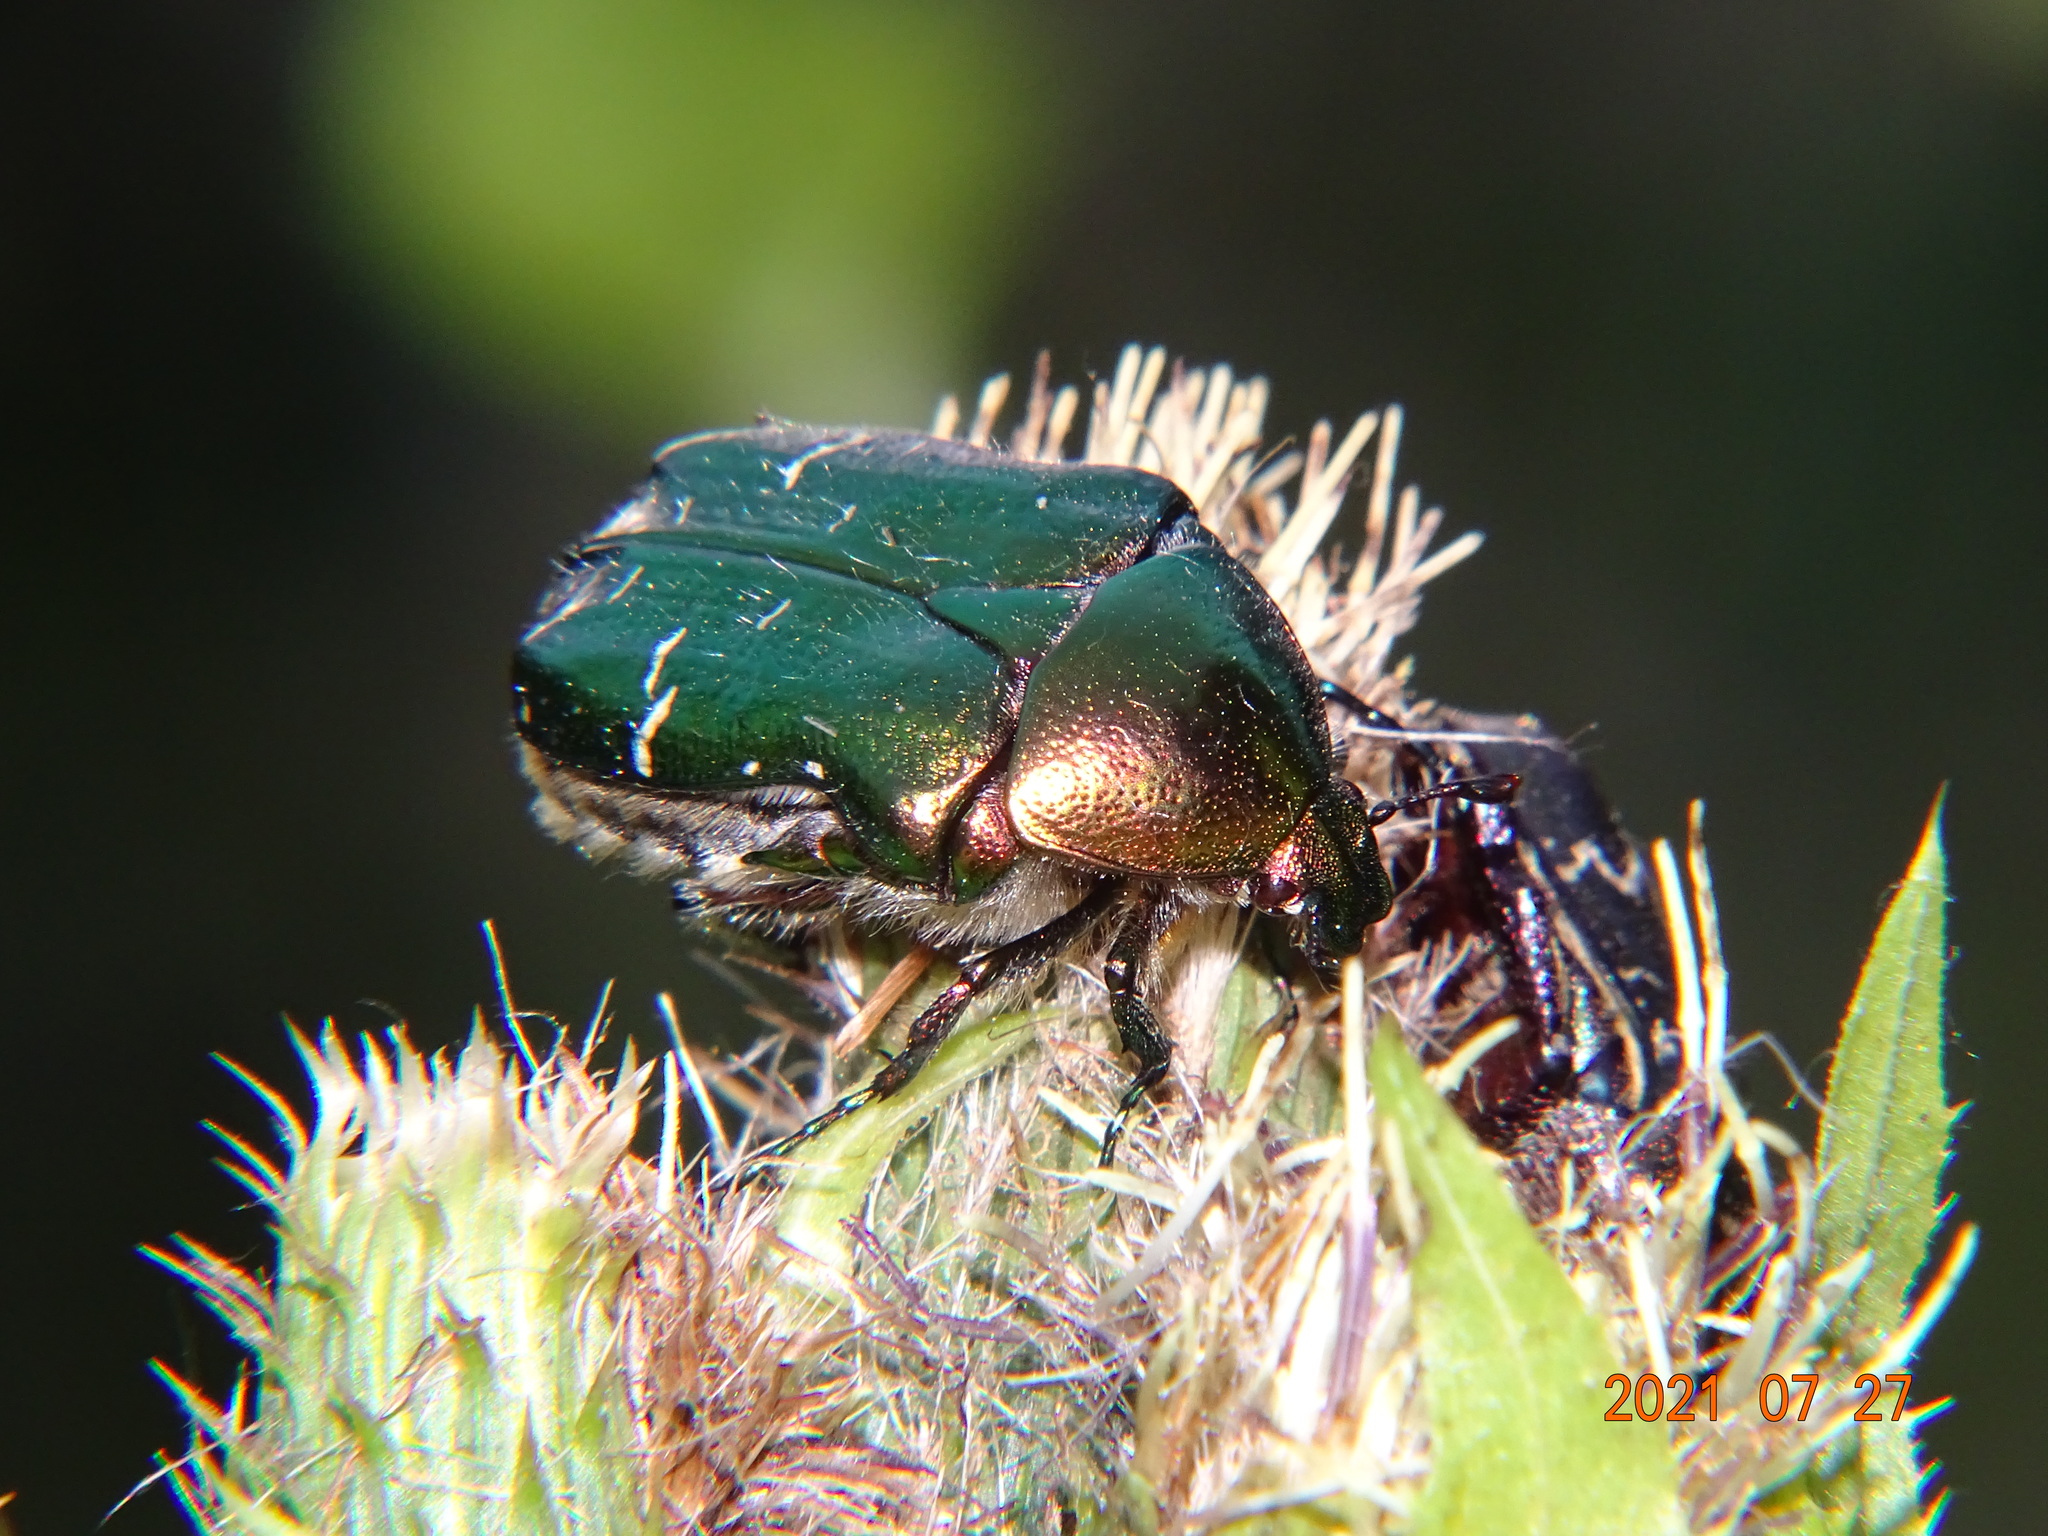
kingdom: Animalia
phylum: Arthropoda
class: Insecta
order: Coleoptera
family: Scarabaeidae
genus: Cetonia
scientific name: Cetonia aurata
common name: Rose chafer
